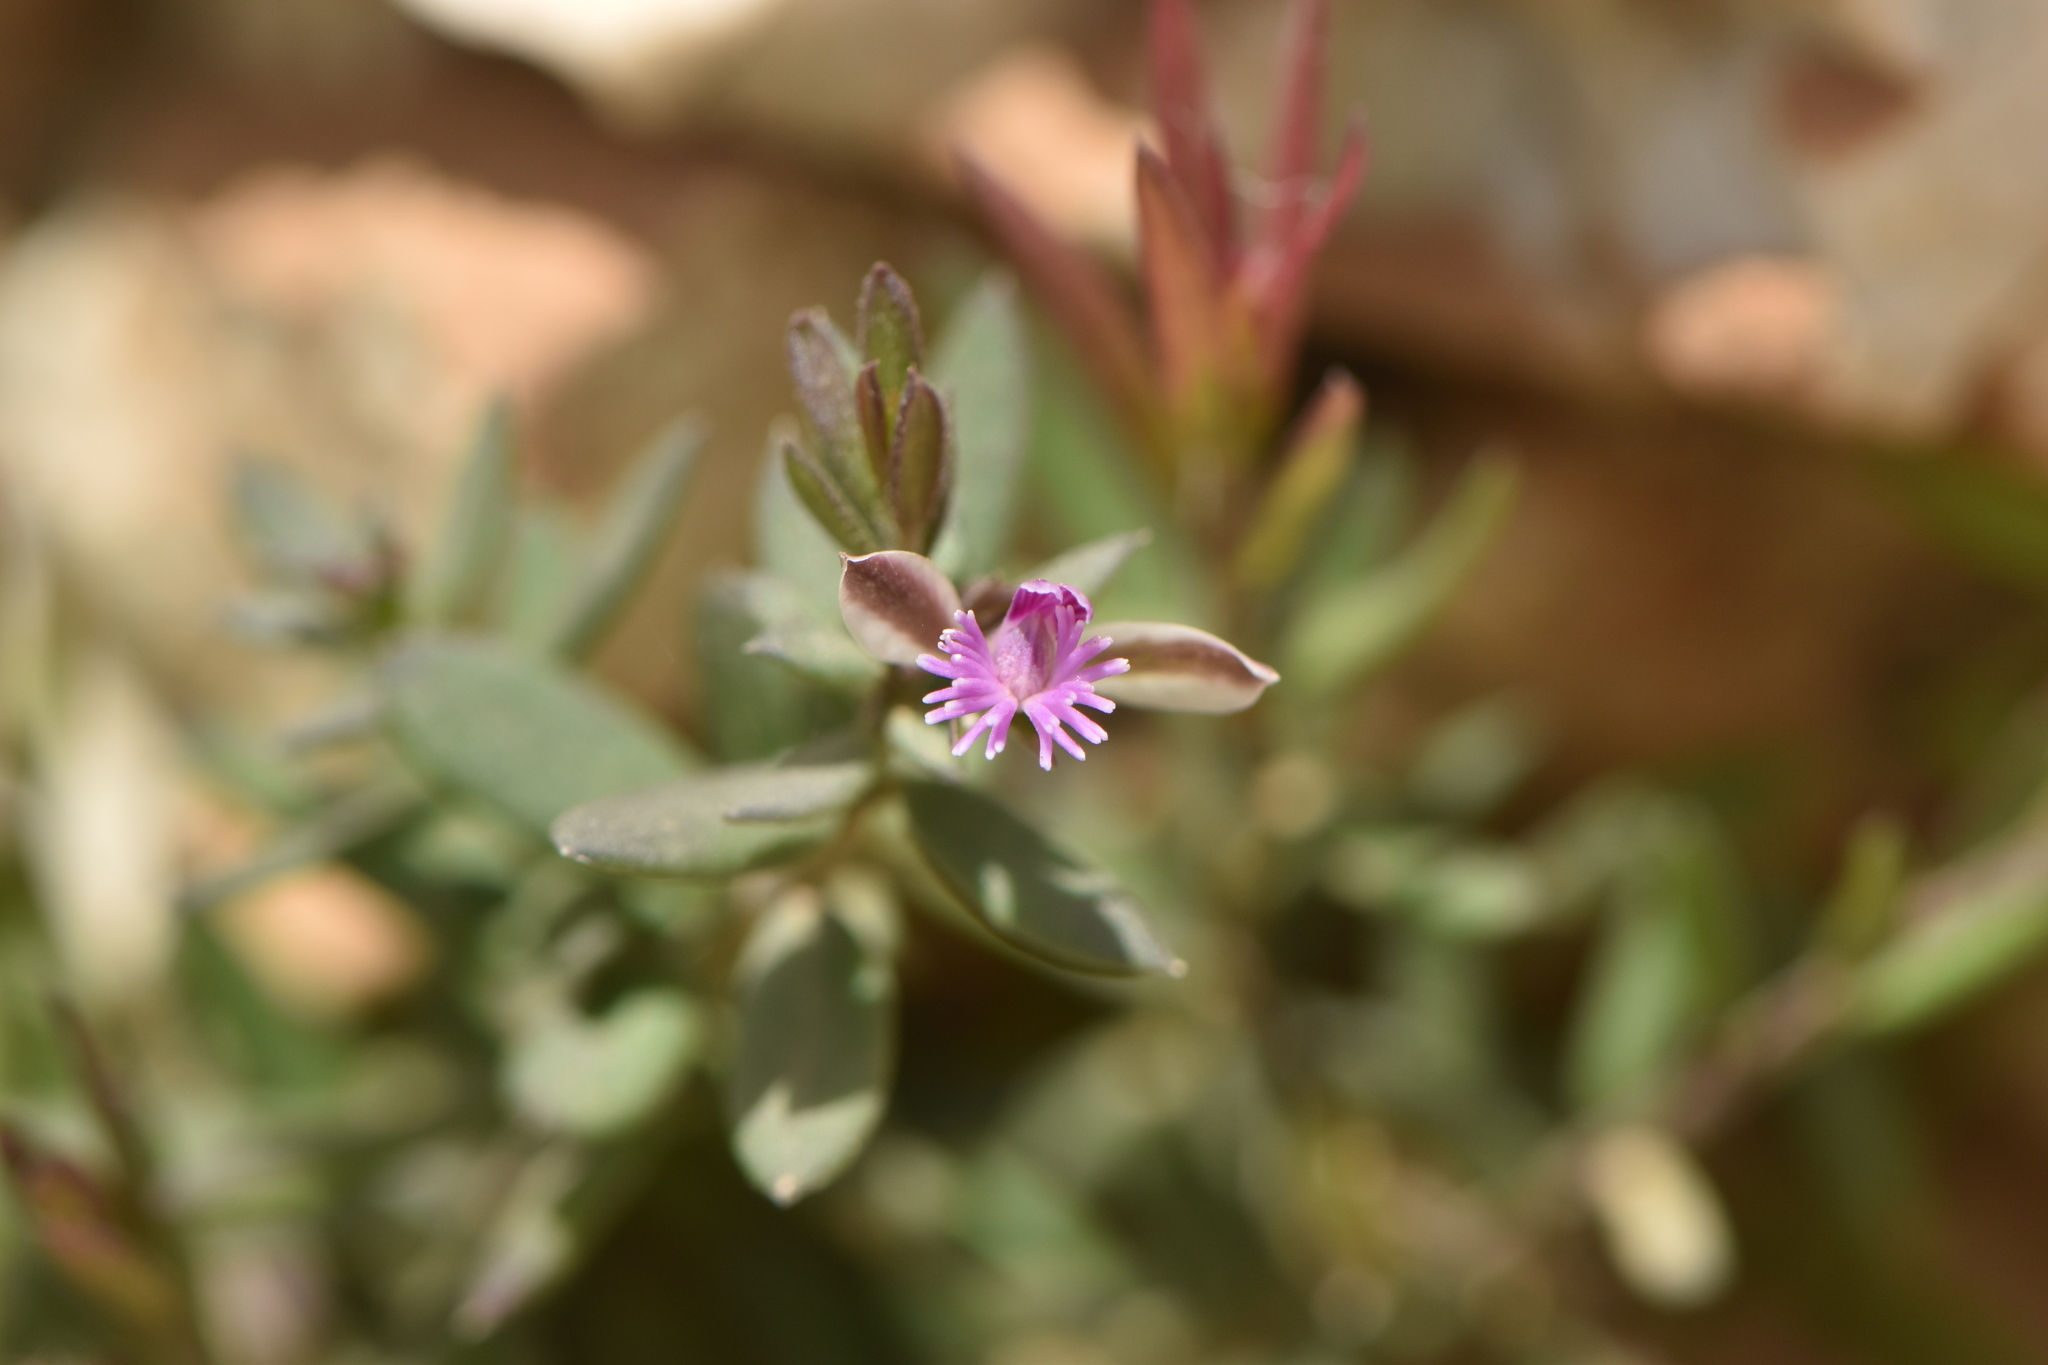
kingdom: Plantae
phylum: Tracheophyta
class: Magnoliopsida
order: Fabales
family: Polygalaceae
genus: Polygala
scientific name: Polygala rupestris
